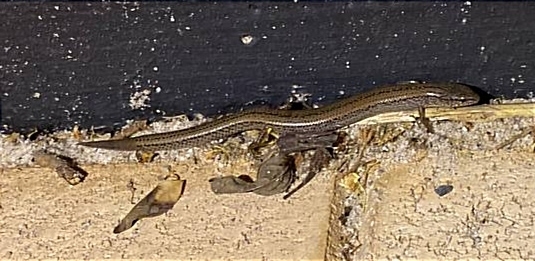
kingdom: Animalia
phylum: Chordata
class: Squamata
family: Scincidae
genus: Hemiergis
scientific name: Hemiergis peronii
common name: Lowlands earless skink
